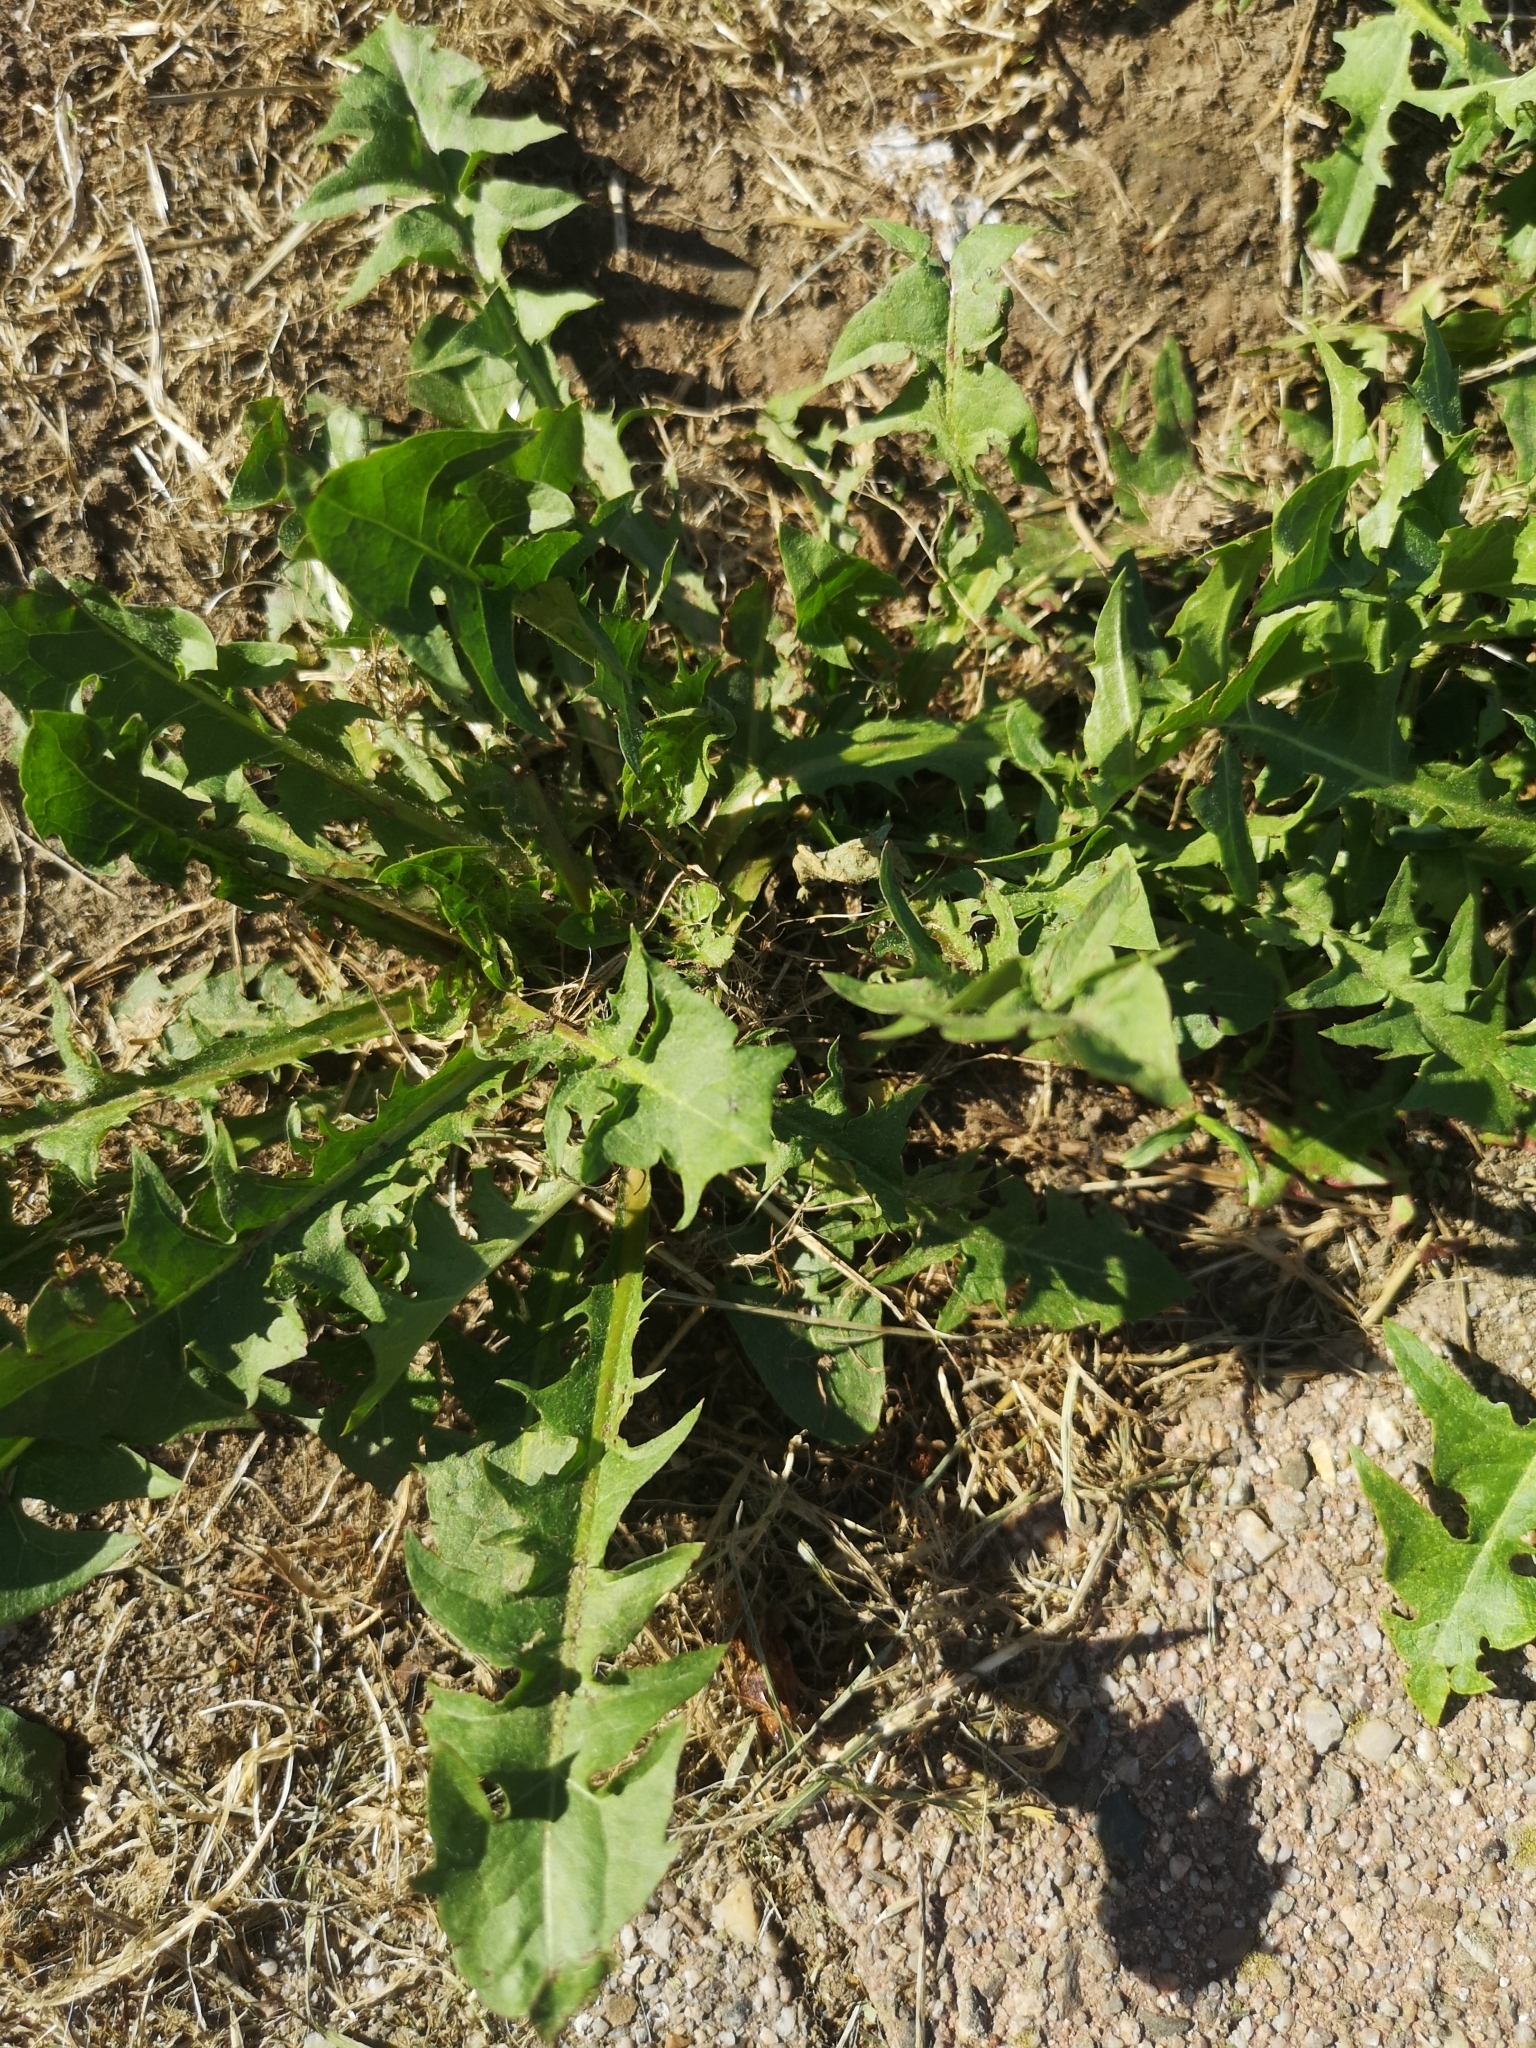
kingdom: Plantae
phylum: Tracheophyta
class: Magnoliopsida
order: Asterales
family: Asteraceae
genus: Taraxacum
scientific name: Taraxacum officinale
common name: Common dandelion
